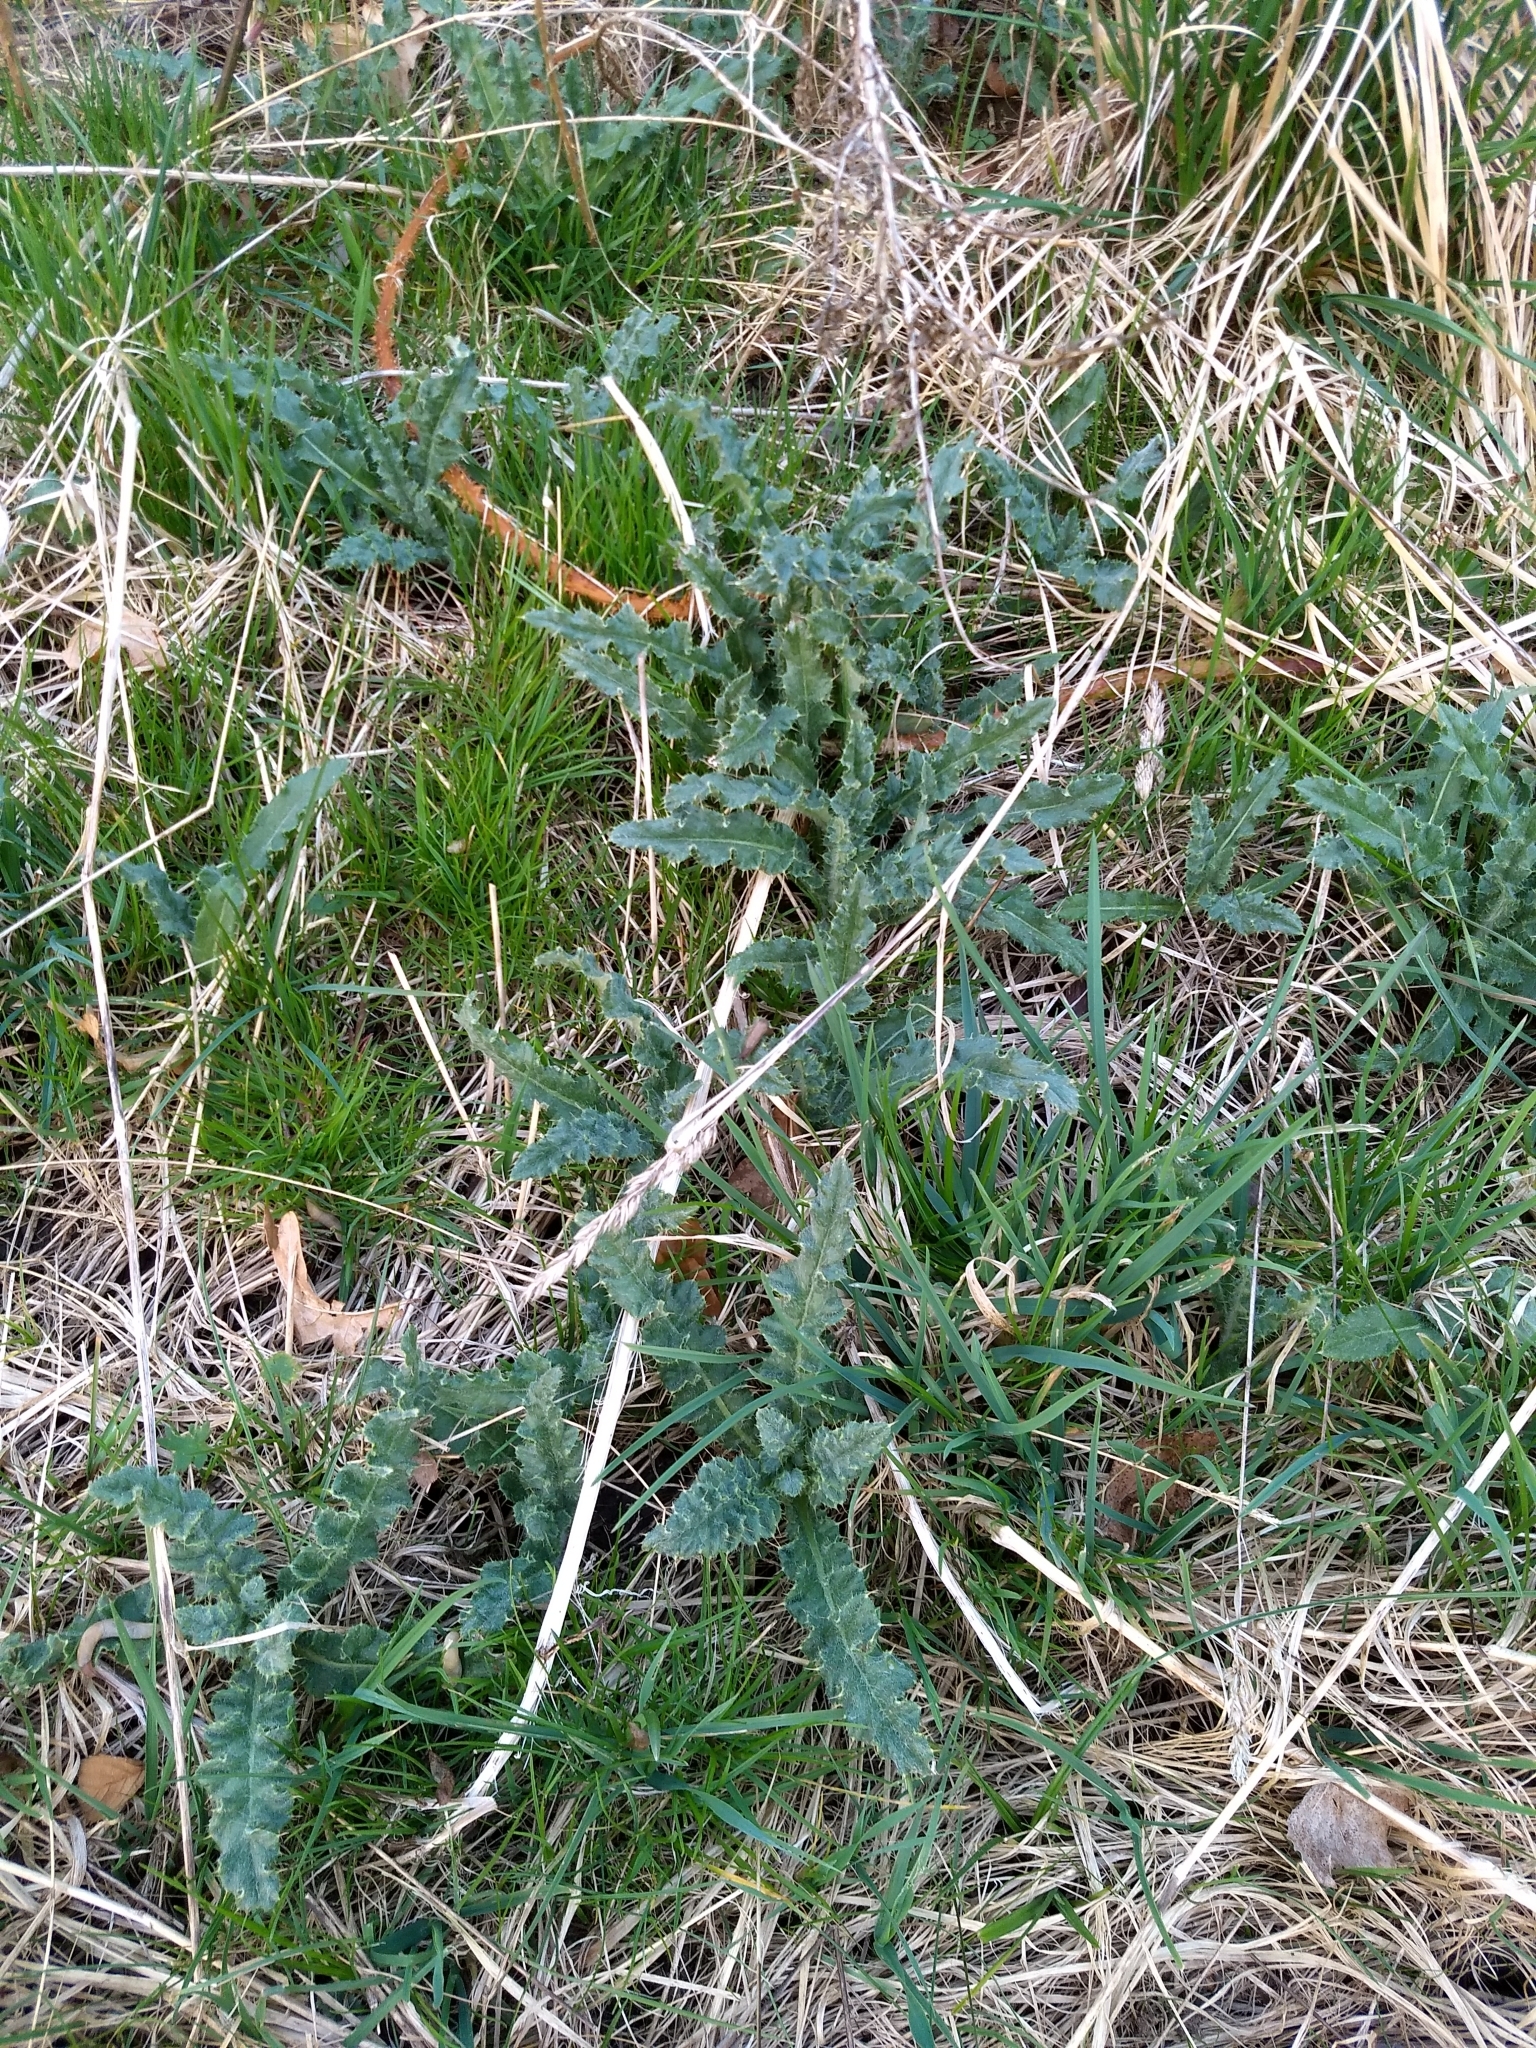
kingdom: Plantae
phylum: Tracheophyta
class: Magnoliopsida
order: Asterales
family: Asteraceae
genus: Cirsium
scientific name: Cirsium arvense
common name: Creeping thistle
